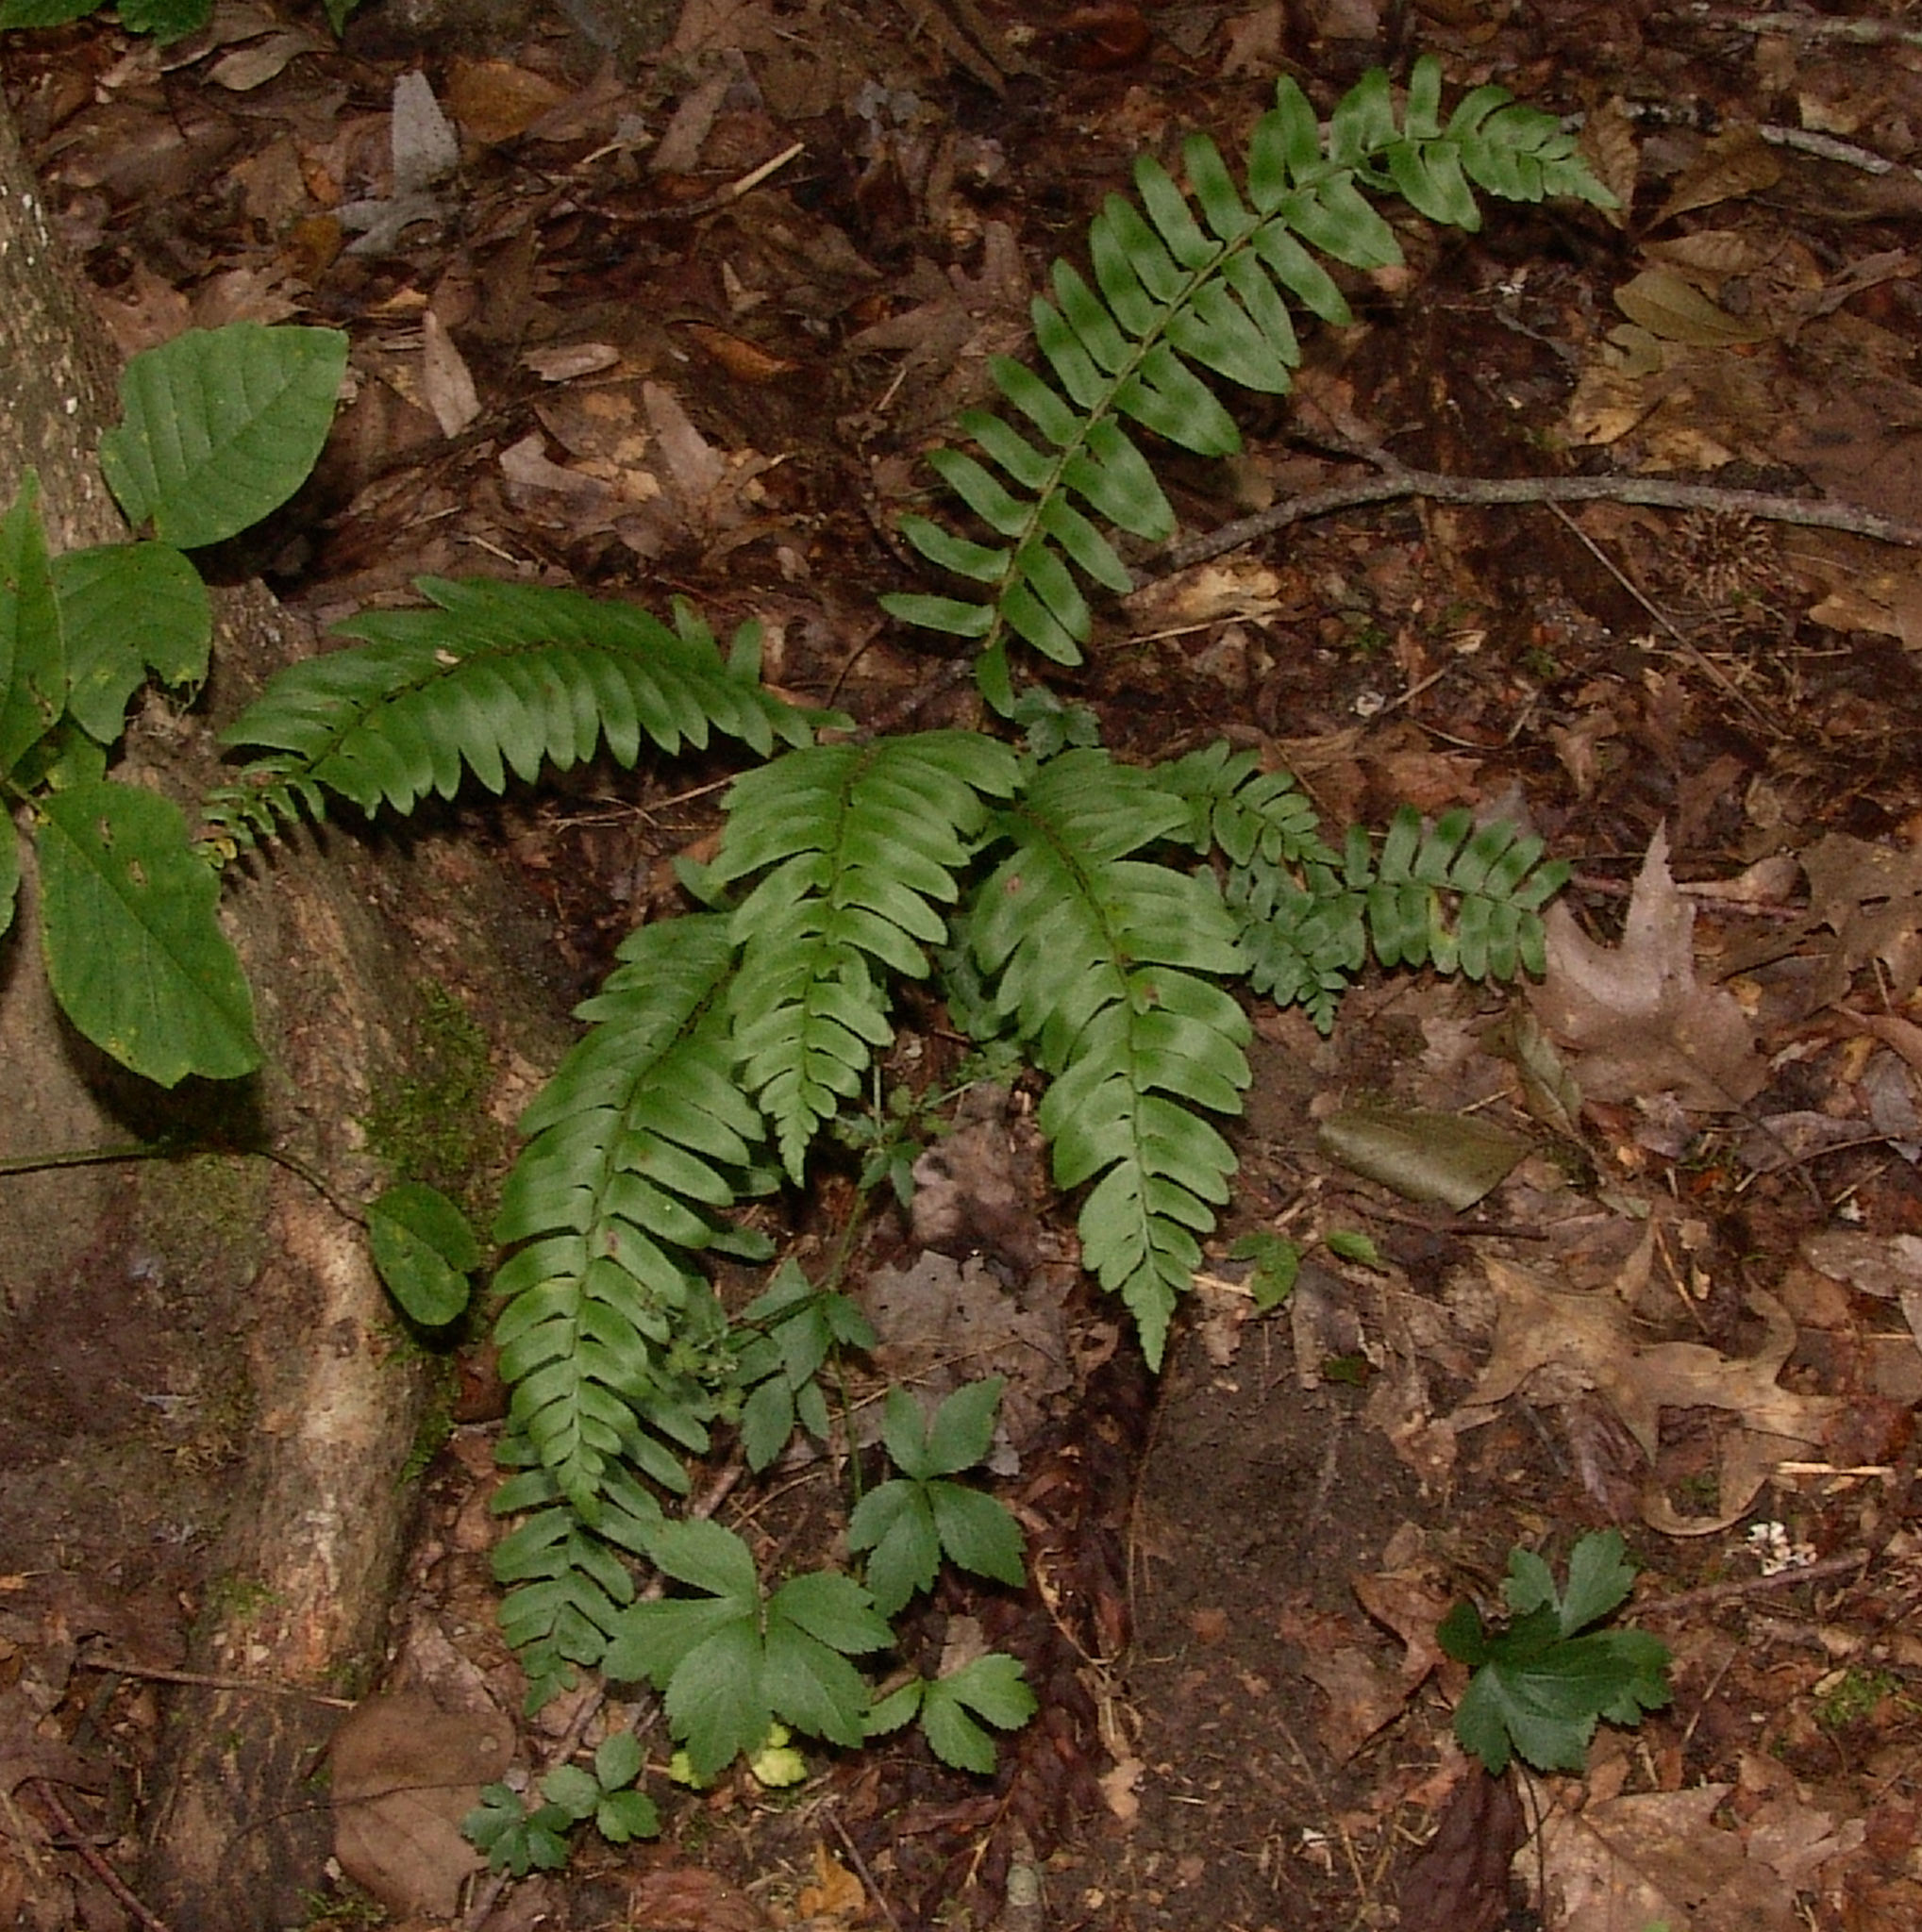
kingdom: Plantae
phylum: Tracheophyta
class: Polypodiopsida
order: Polypodiales
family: Dryopteridaceae
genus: Polystichum
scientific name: Polystichum acrostichoides
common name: Christmas fern
